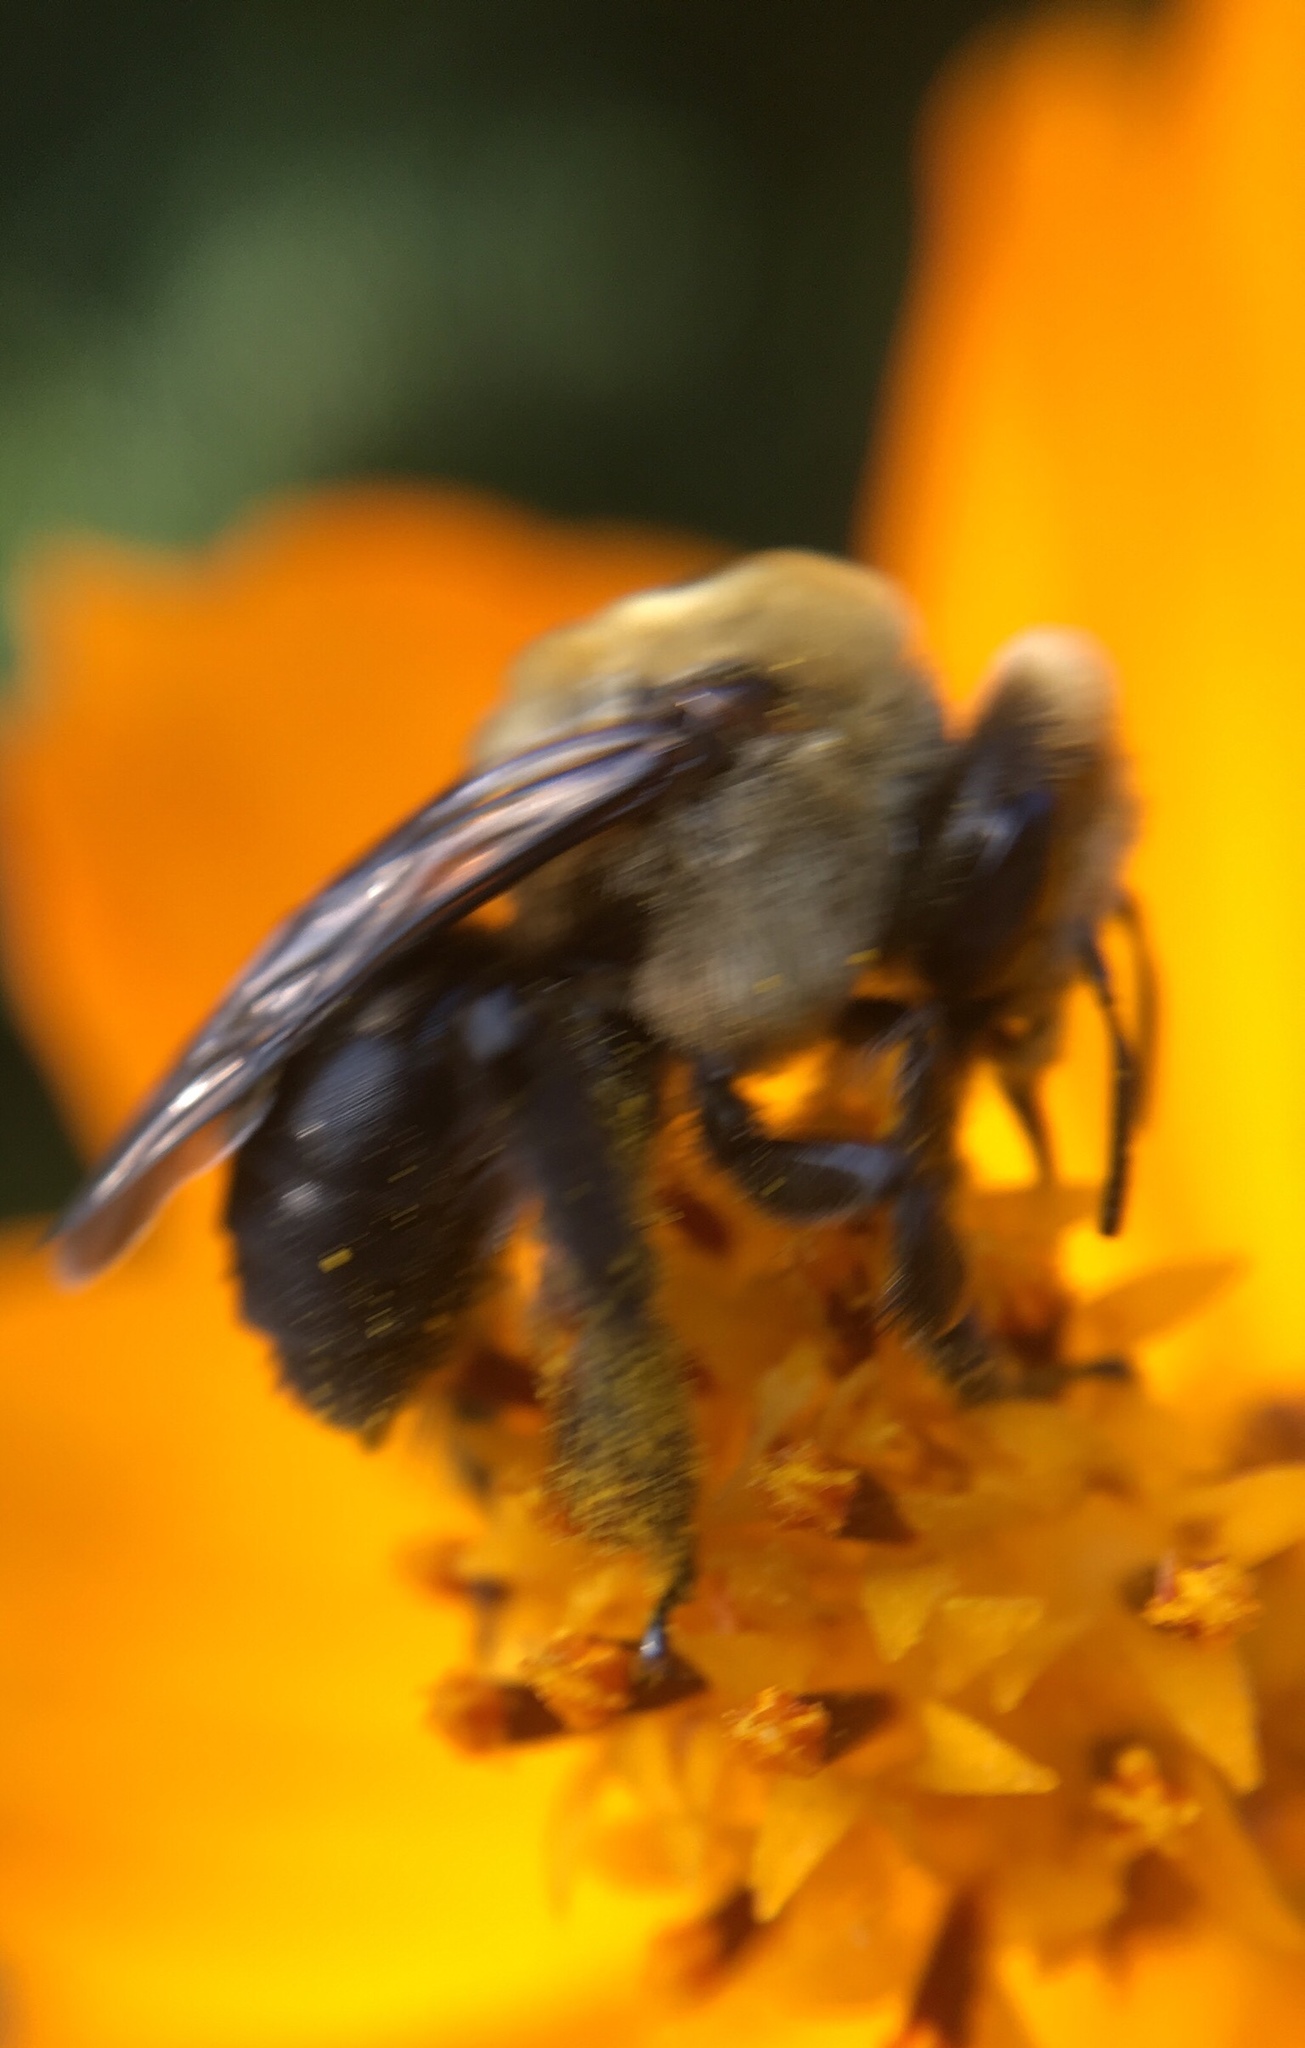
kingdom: Animalia
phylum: Arthropoda
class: Insecta
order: Hymenoptera
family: Apidae
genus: Ptilothrix
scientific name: Ptilothrix bombiformis
